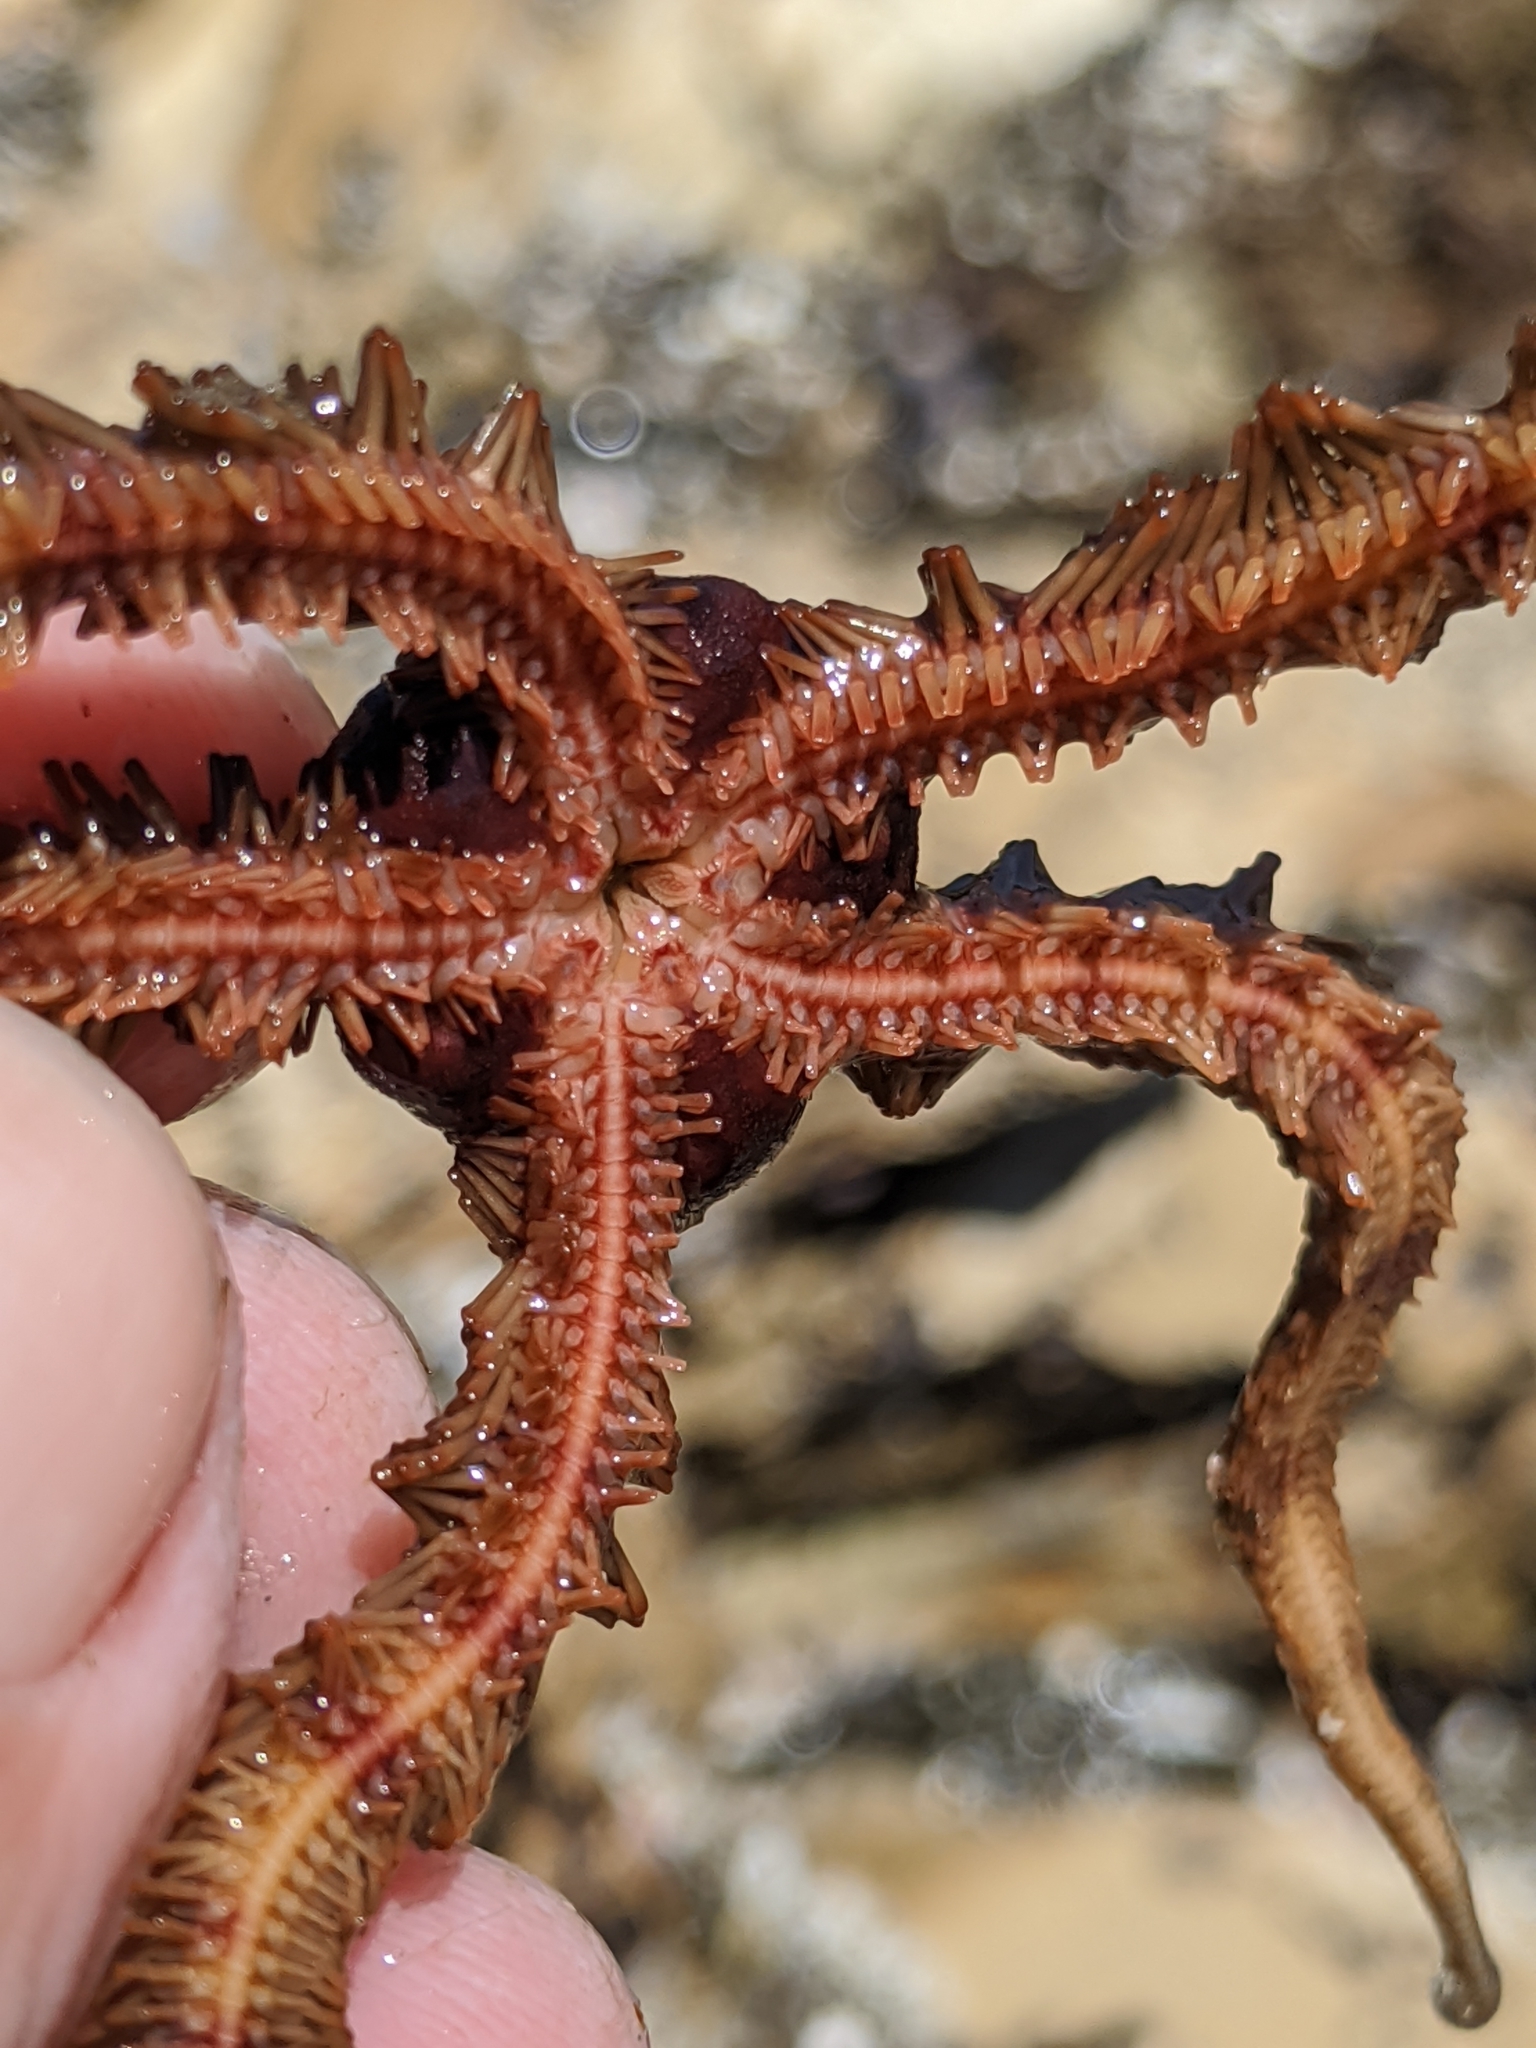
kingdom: Animalia
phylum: Echinodermata
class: Ophiuroidea
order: Ophiacanthida
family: Ophiopteridae
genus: Ophiopteris
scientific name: Ophiopteris papillosa
